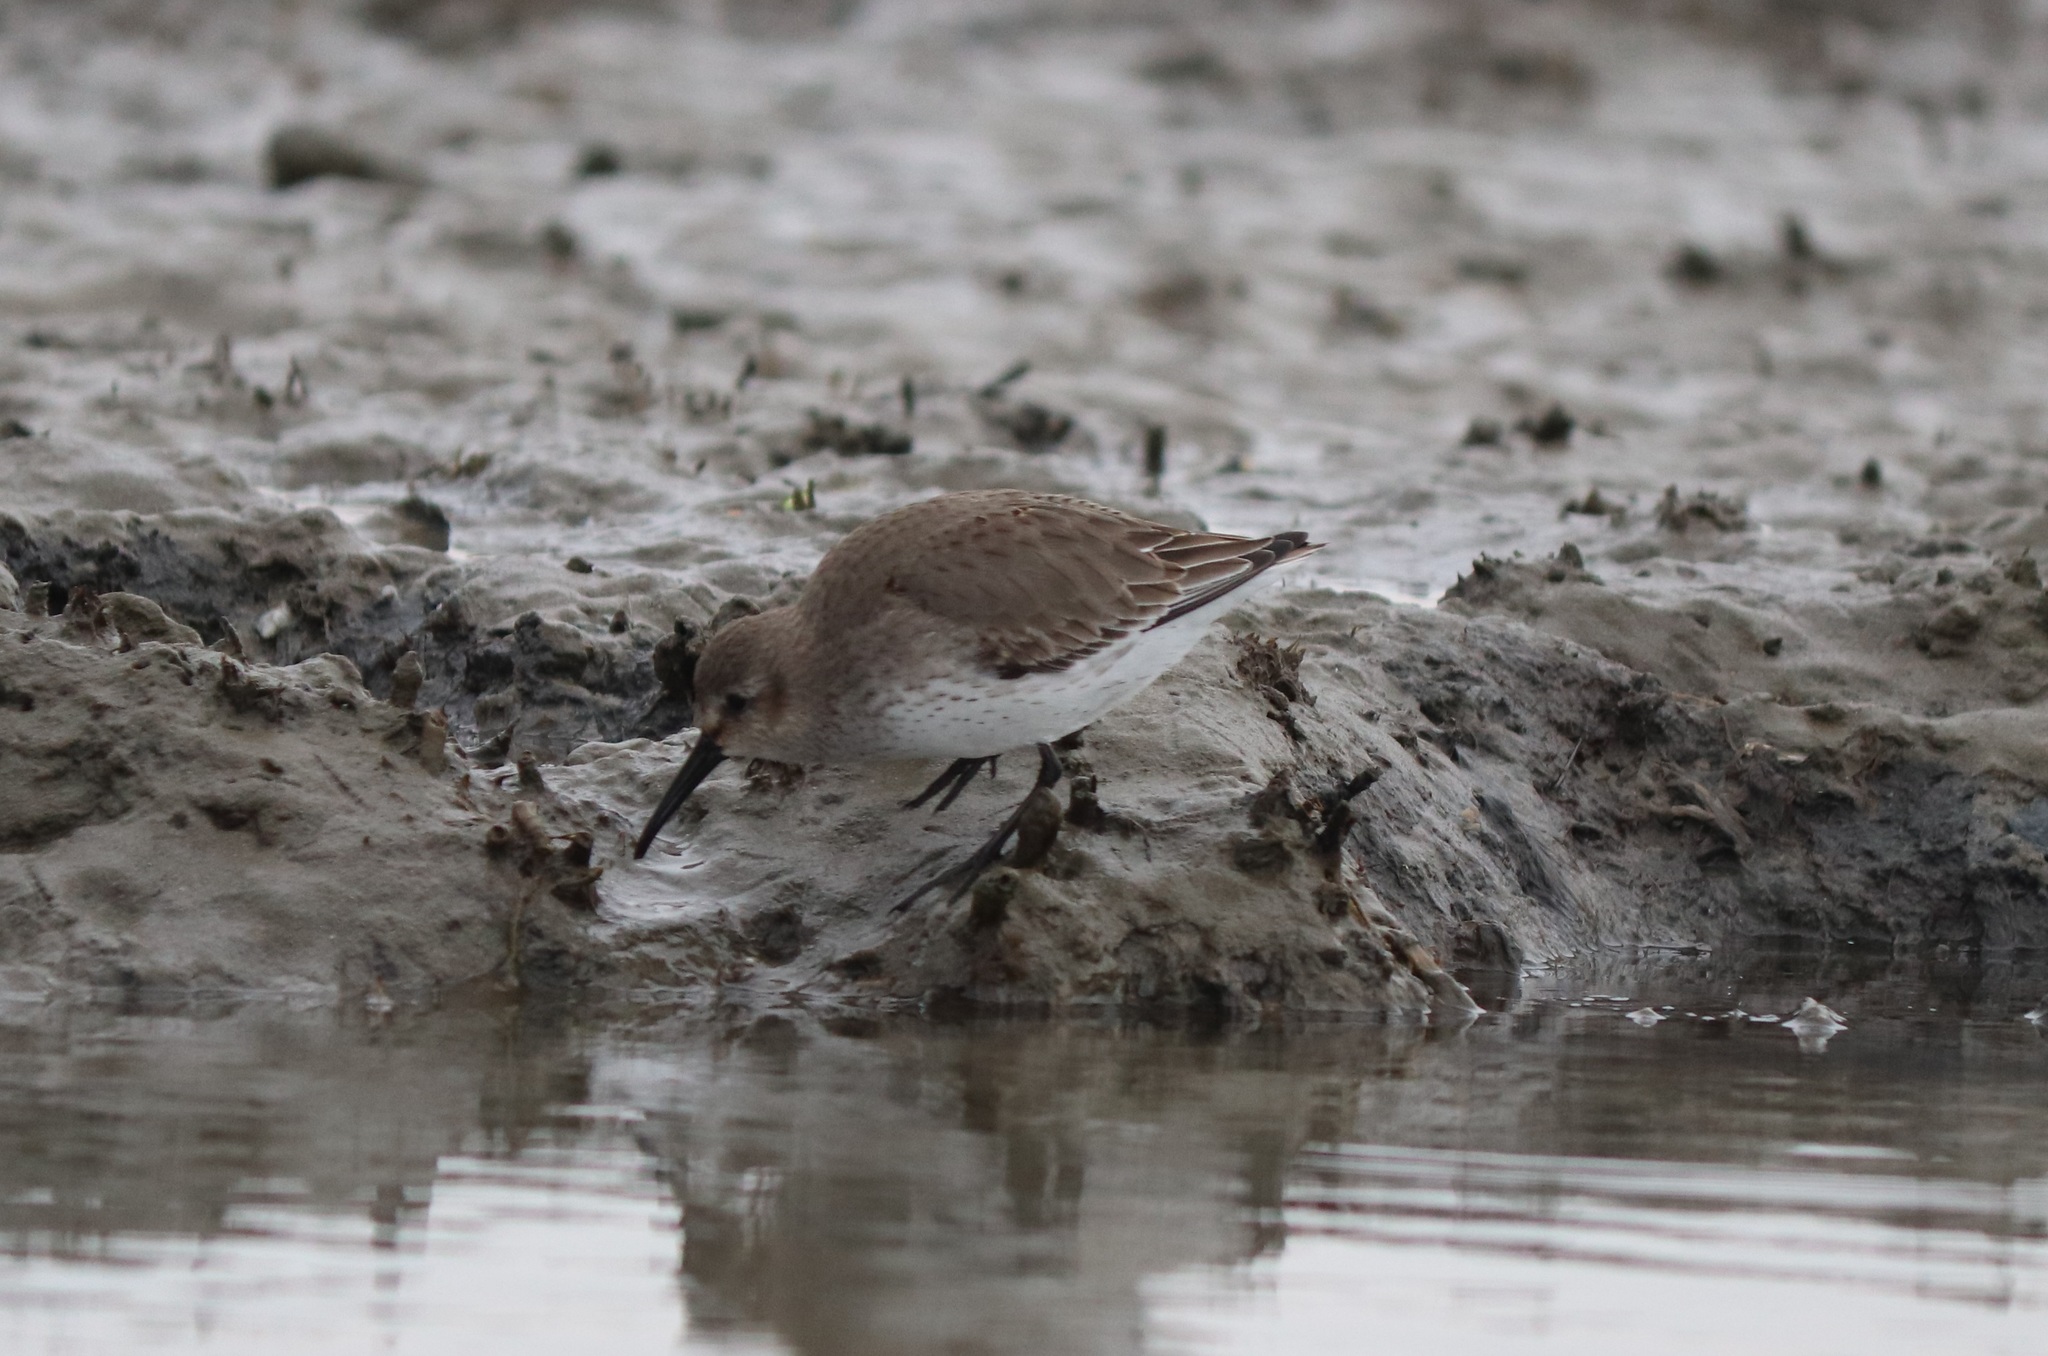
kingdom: Animalia
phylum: Chordata
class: Aves
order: Charadriiformes
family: Scolopacidae
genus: Calidris
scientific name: Calidris alpina
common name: Dunlin
